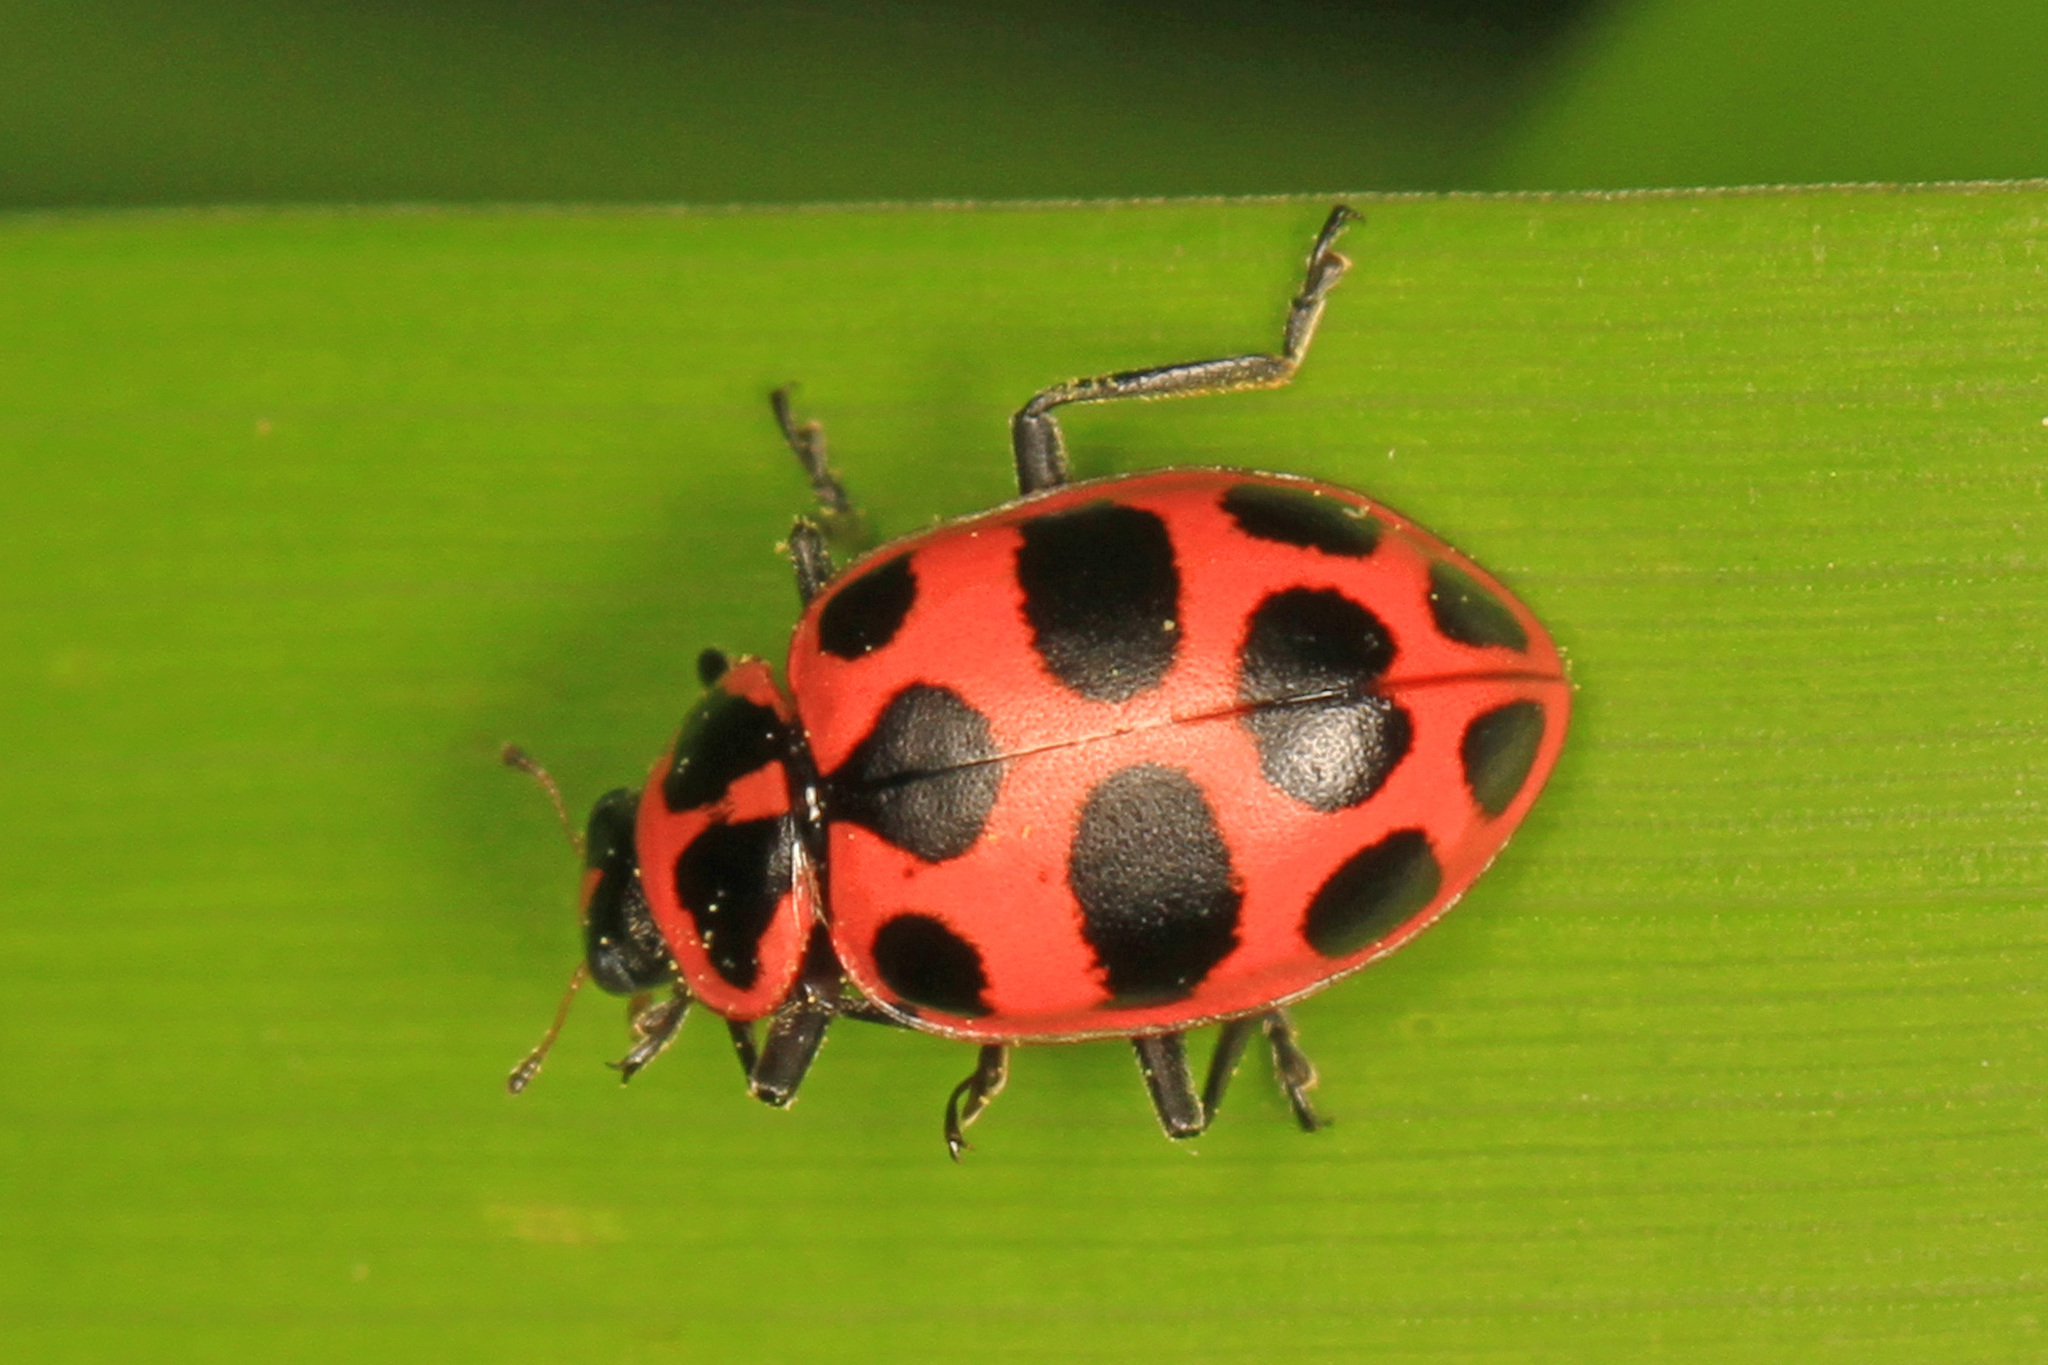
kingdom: Animalia
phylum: Arthropoda
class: Insecta
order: Coleoptera
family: Coccinellidae
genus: Coleomegilla
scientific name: Coleomegilla maculata
